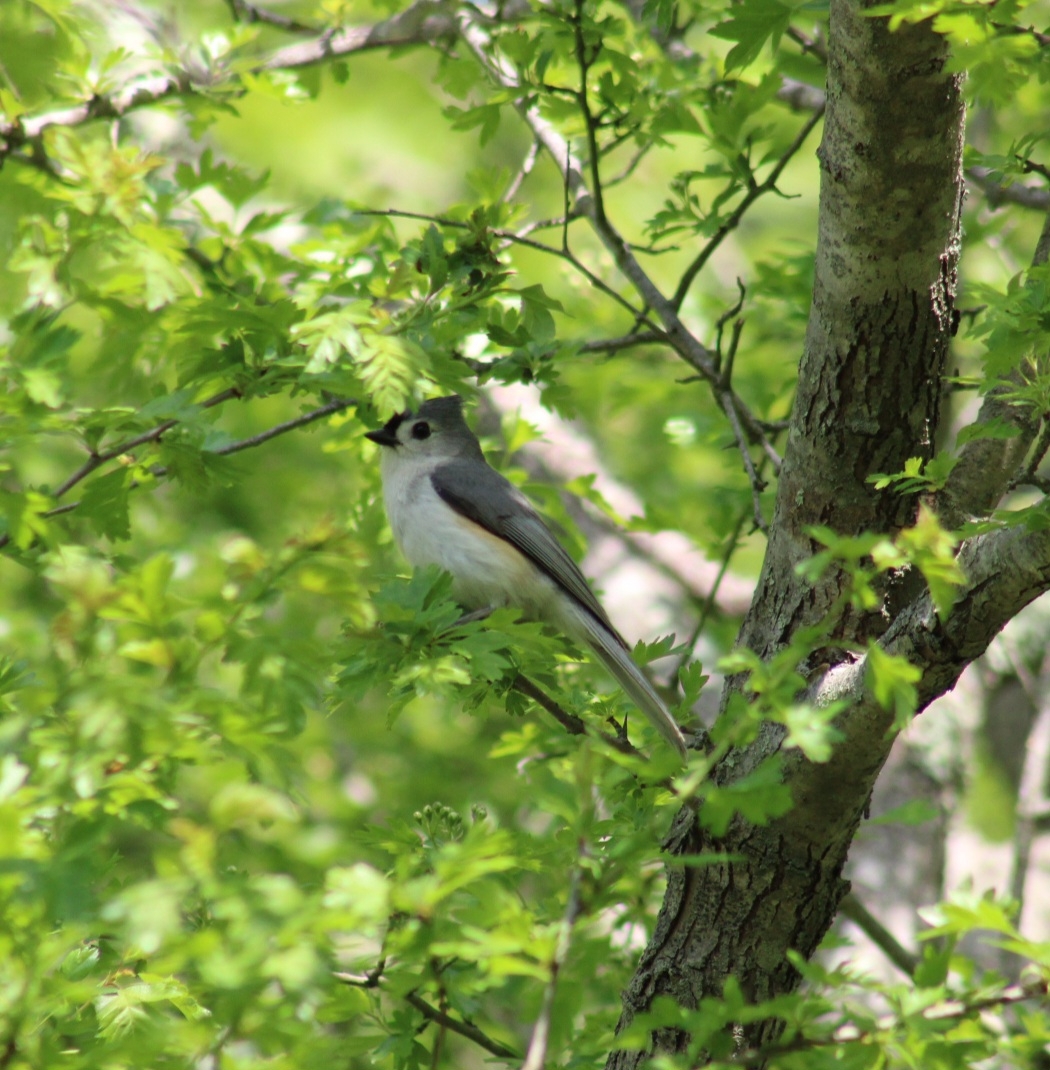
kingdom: Animalia
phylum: Chordata
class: Aves
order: Passeriformes
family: Paridae
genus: Baeolophus
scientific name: Baeolophus bicolor
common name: Tufted titmouse
